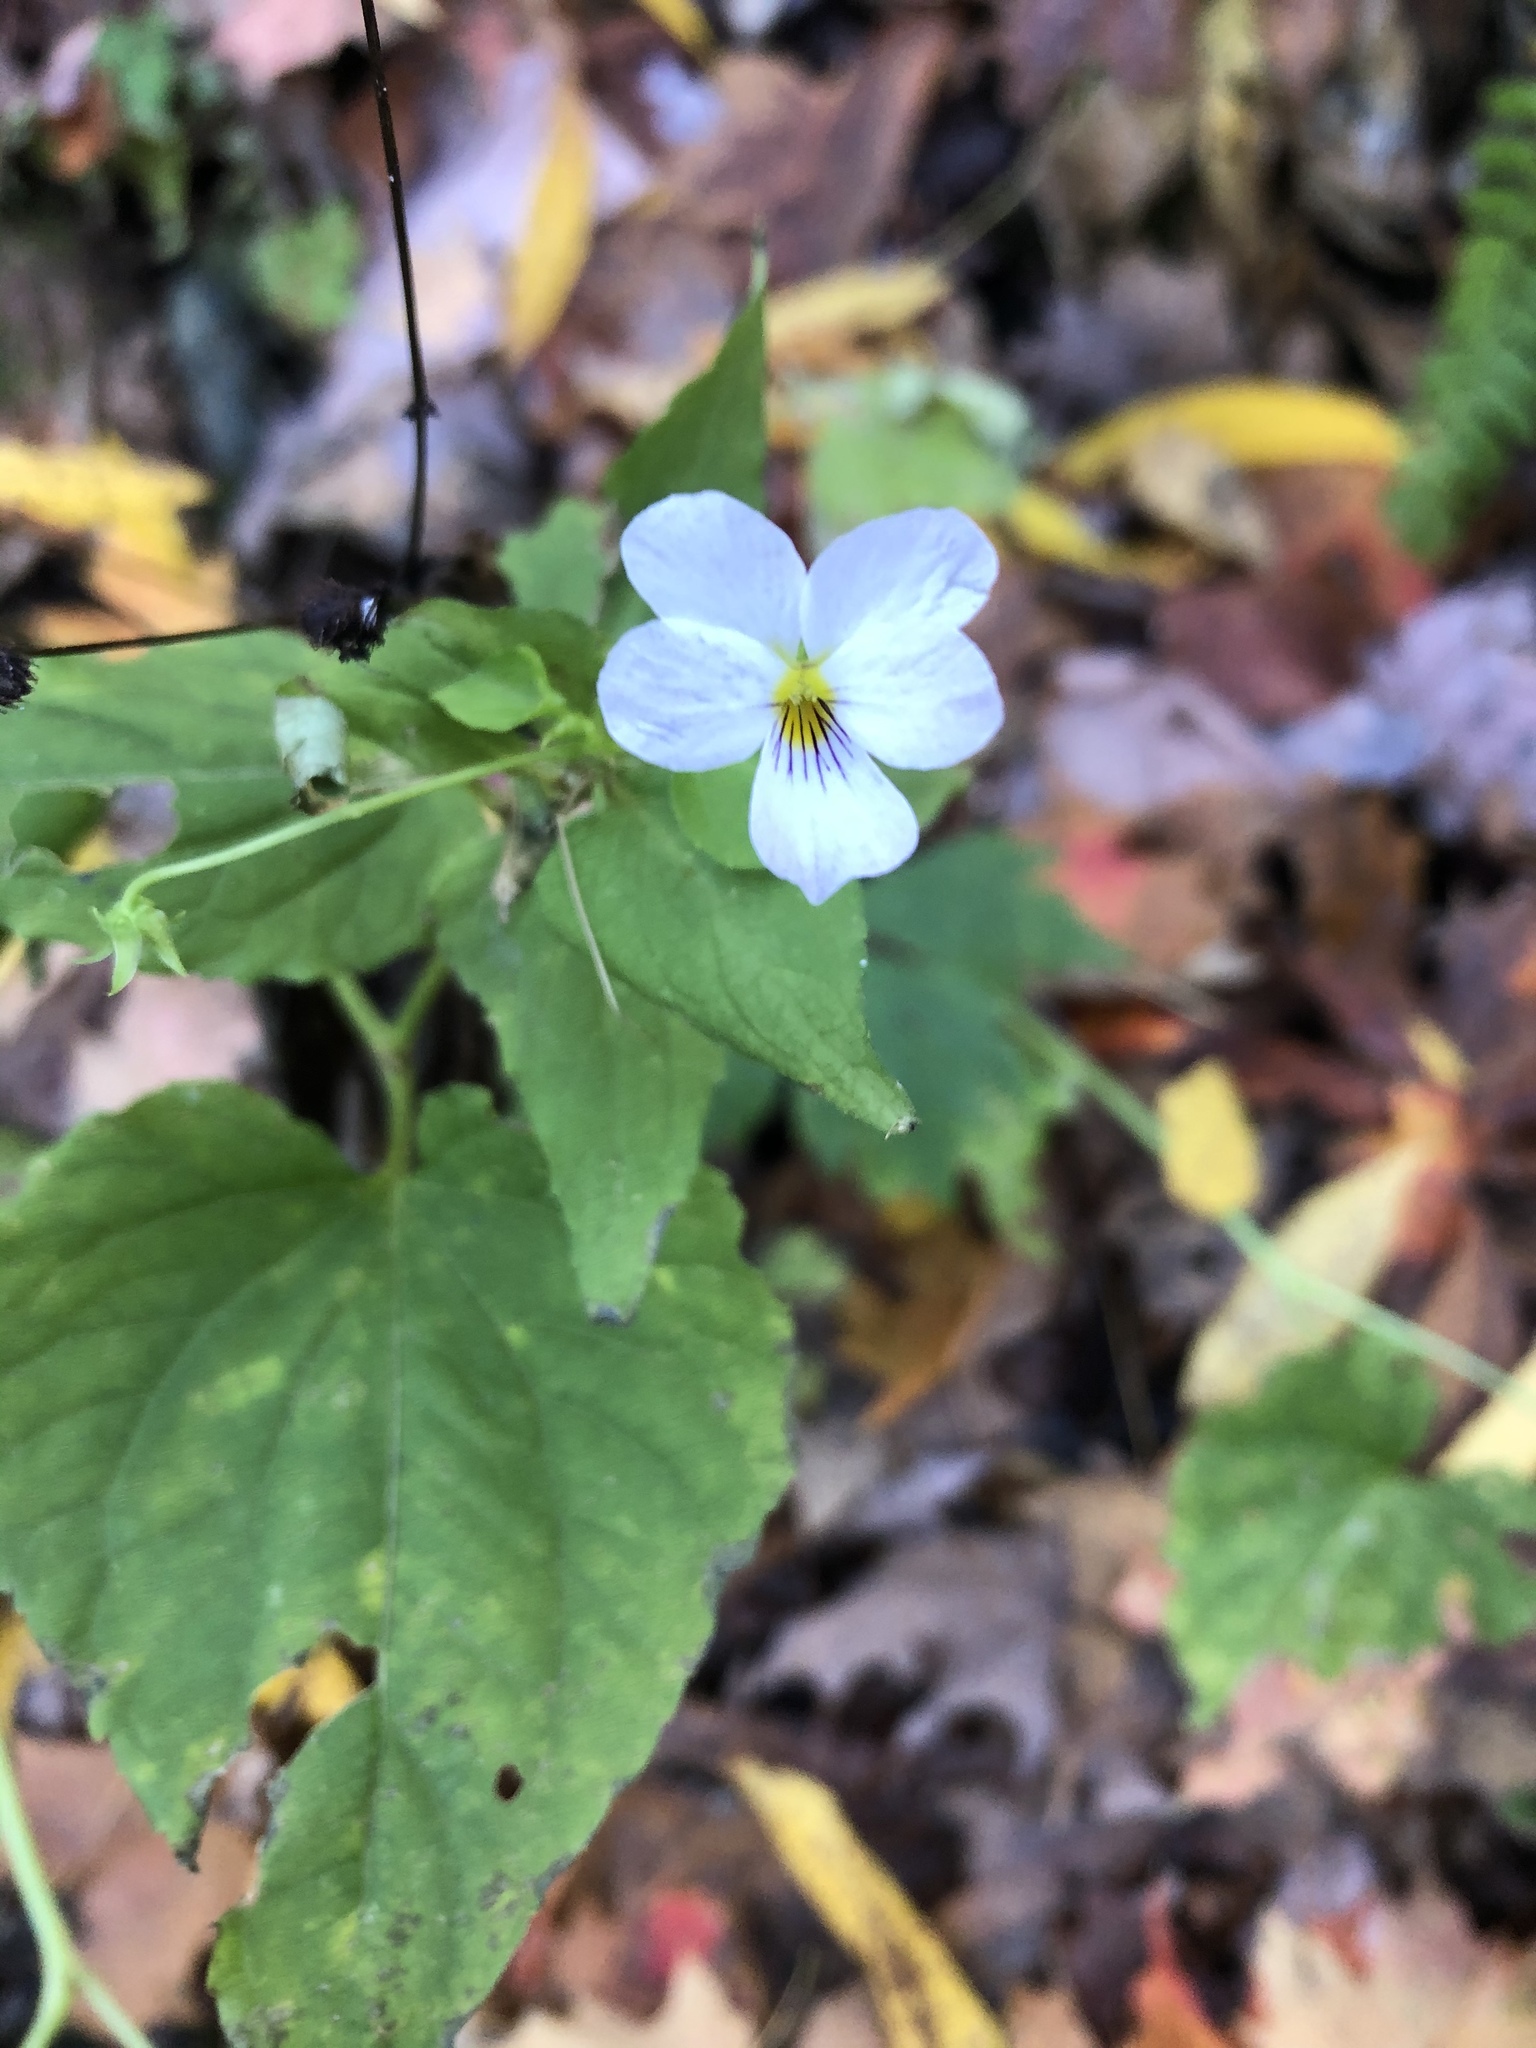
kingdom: Plantae
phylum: Tracheophyta
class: Magnoliopsida
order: Malpighiales
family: Violaceae
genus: Viola
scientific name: Viola canadensis
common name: Canada violet
